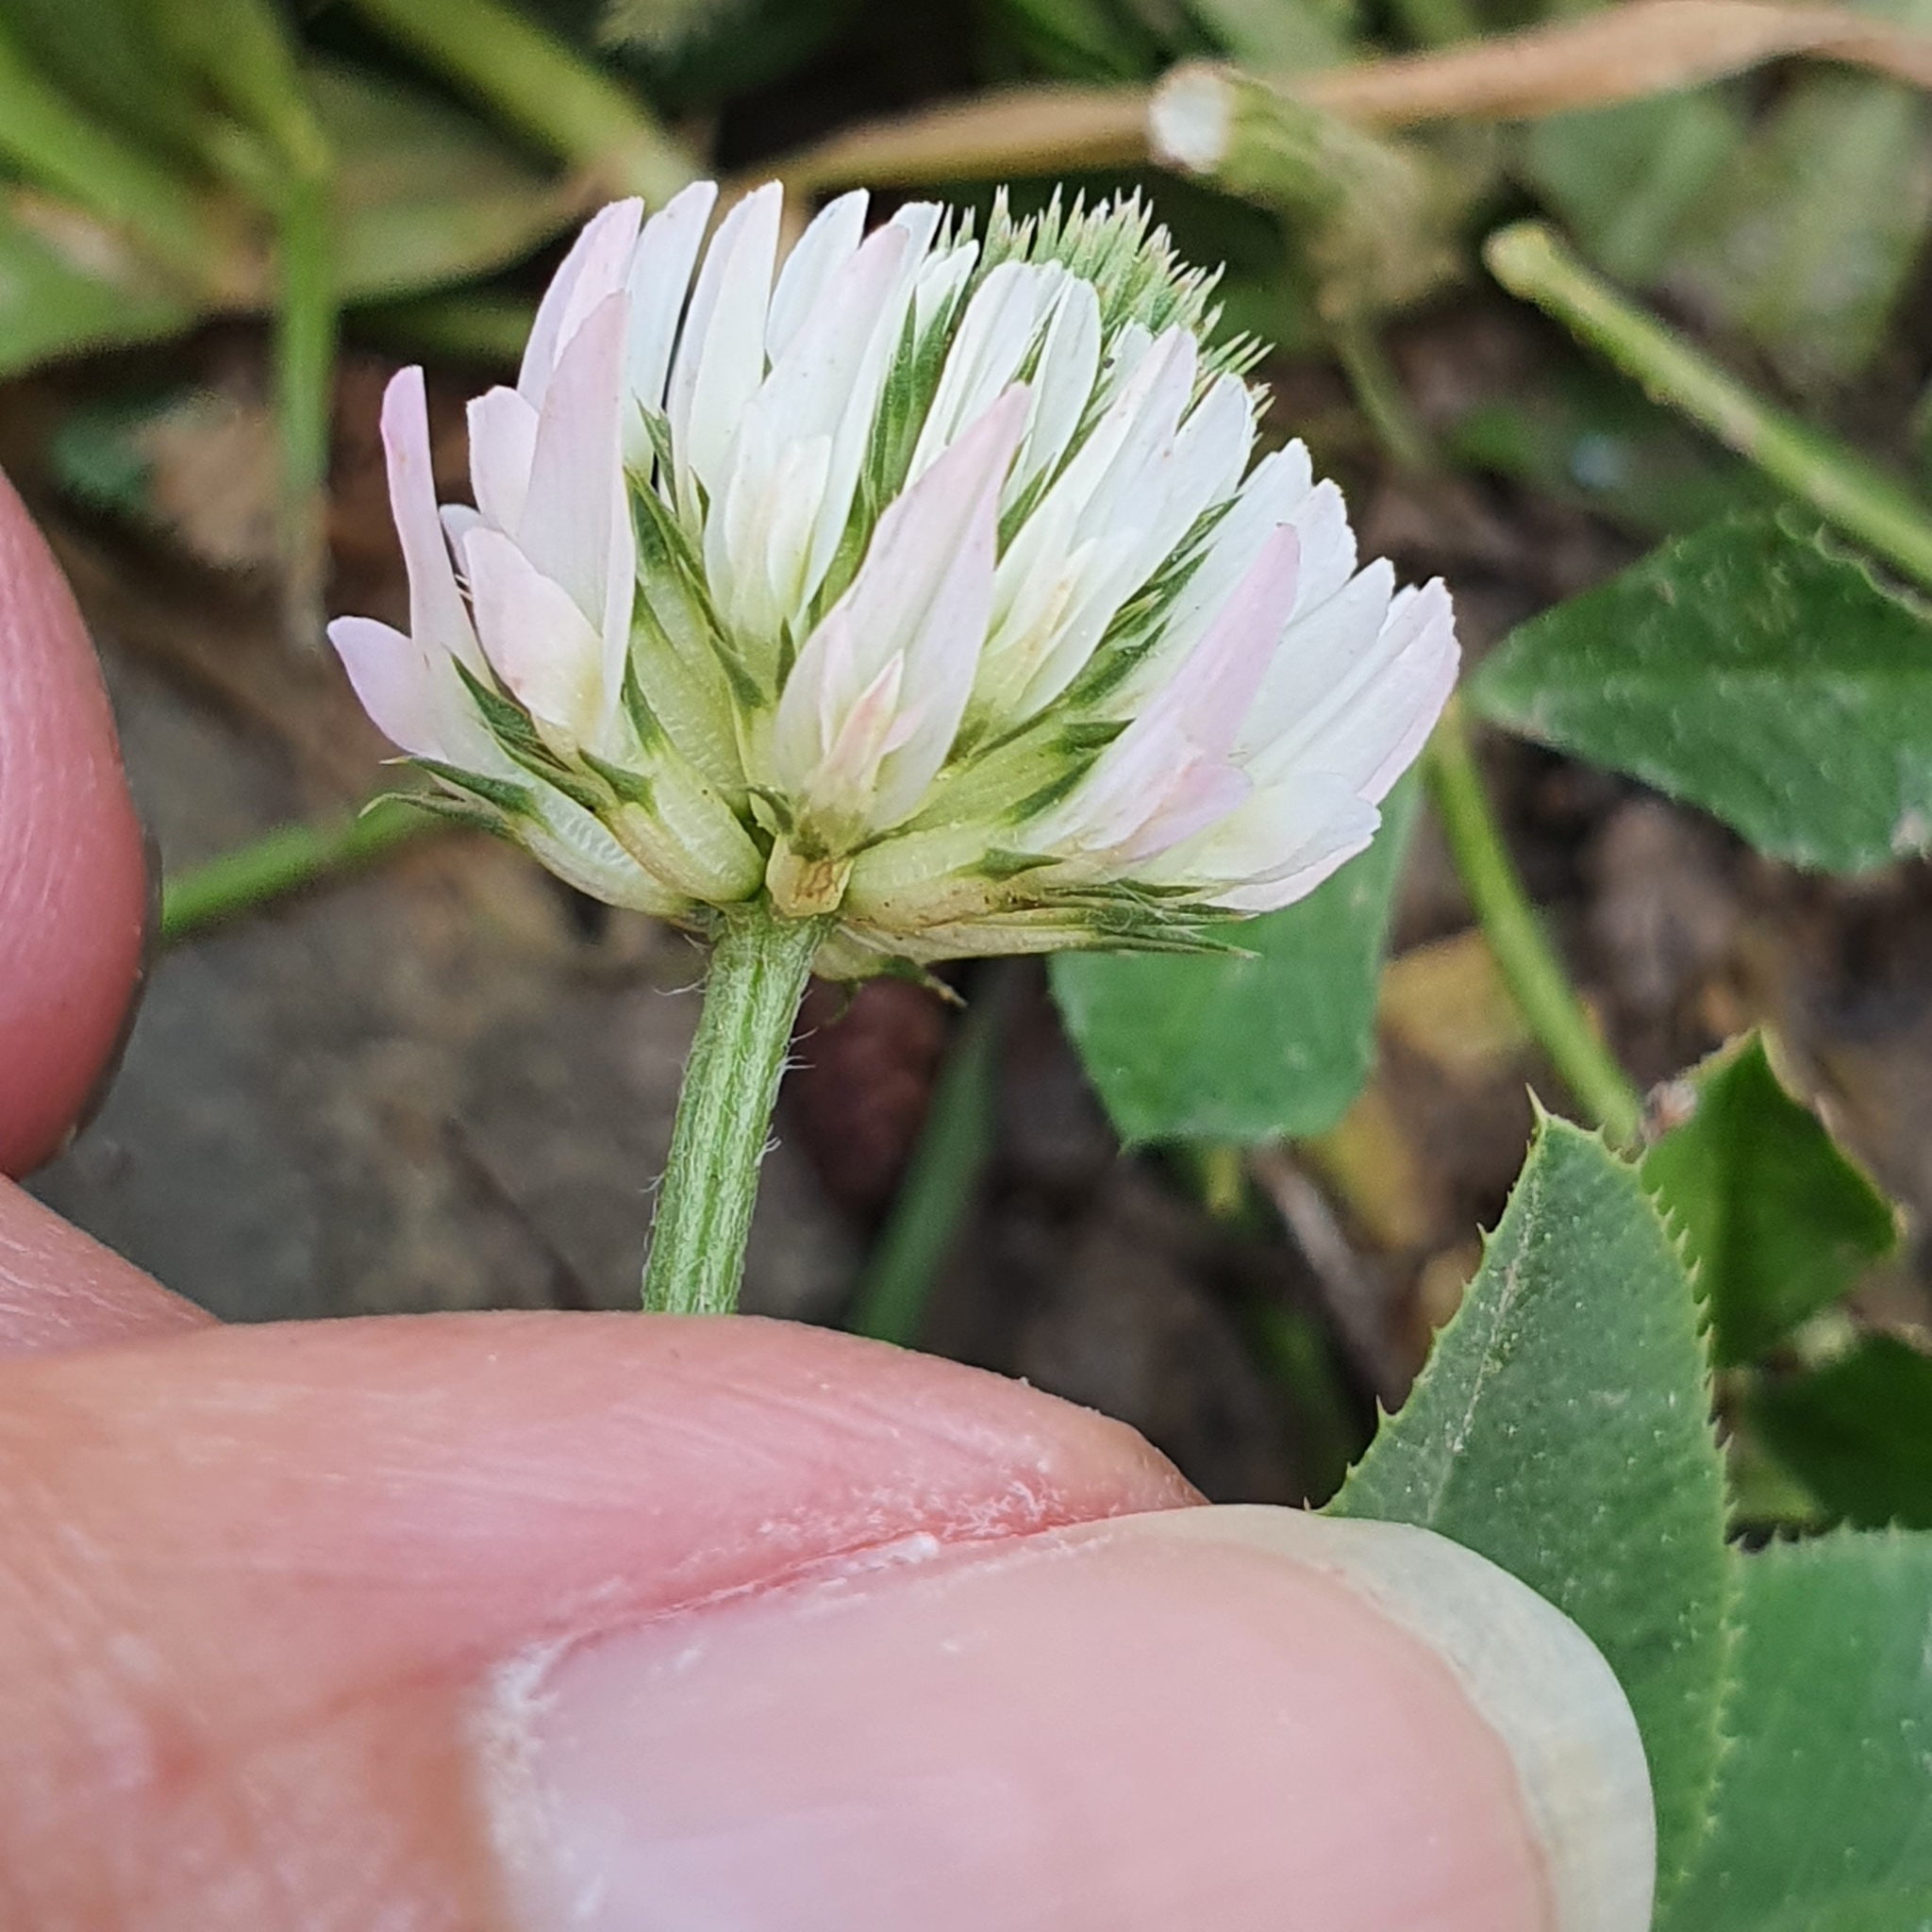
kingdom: Plantae
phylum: Tracheophyta
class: Magnoliopsida
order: Fabales
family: Fabaceae
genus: Trifolium
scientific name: Trifolium nigrescens
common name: Small white clover
